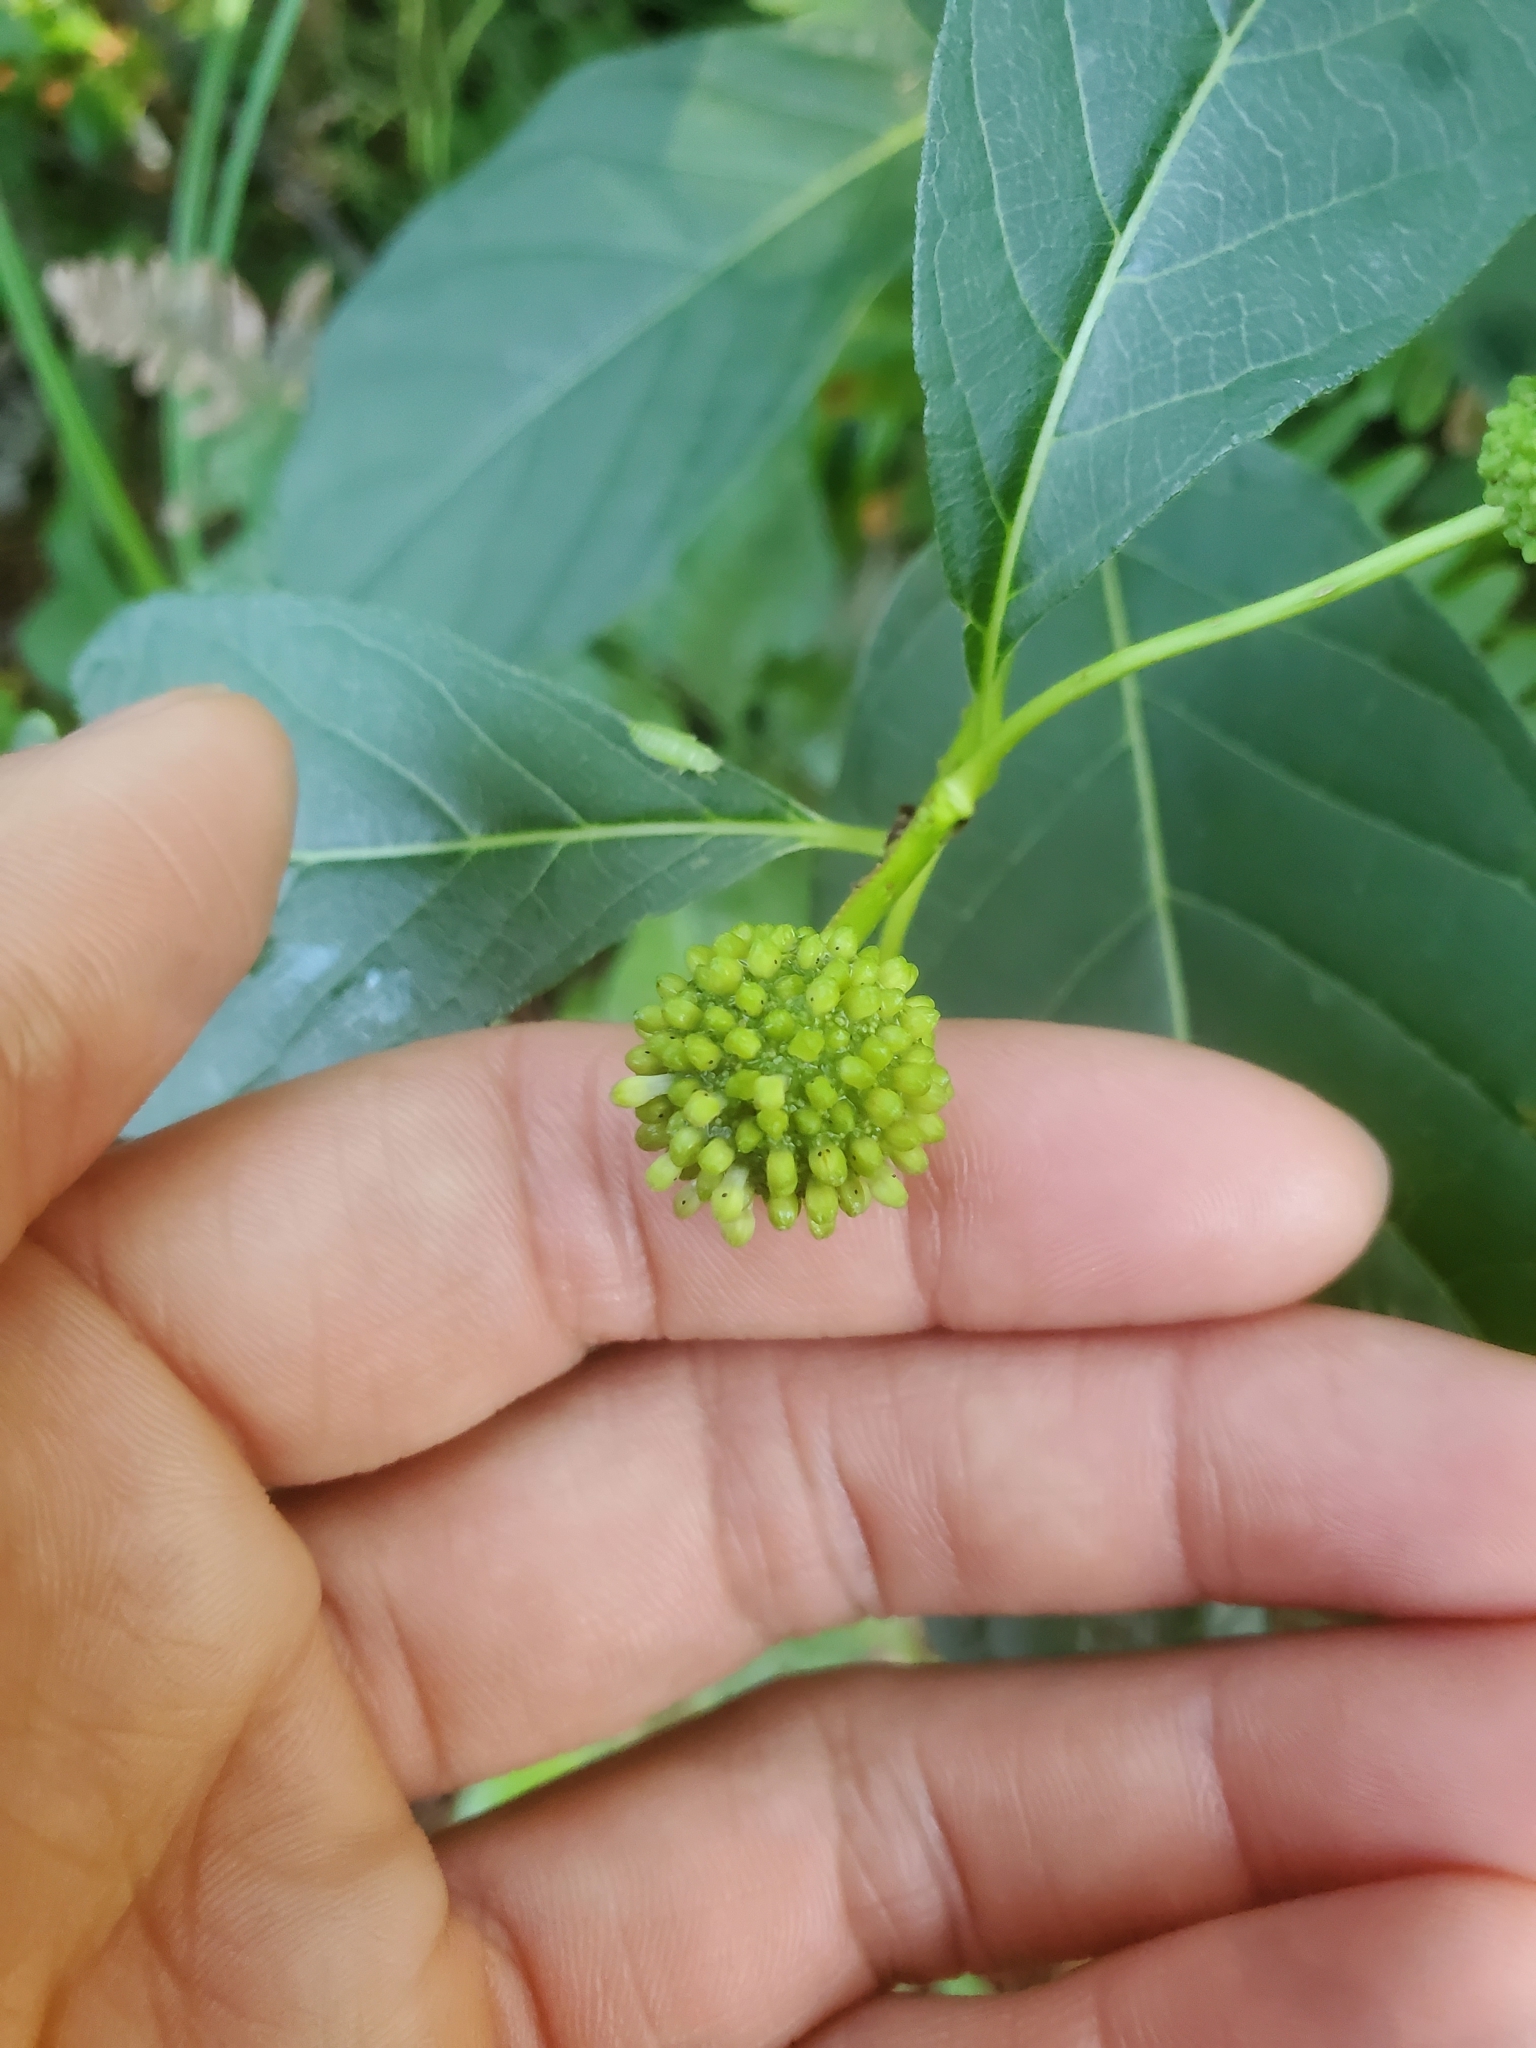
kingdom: Plantae
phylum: Tracheophyta
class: Magnoliopsida
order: Gentianales
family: Rubiaceae
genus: Cephalanthus
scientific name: Cephalanthus occidentalis
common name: Button-willow
